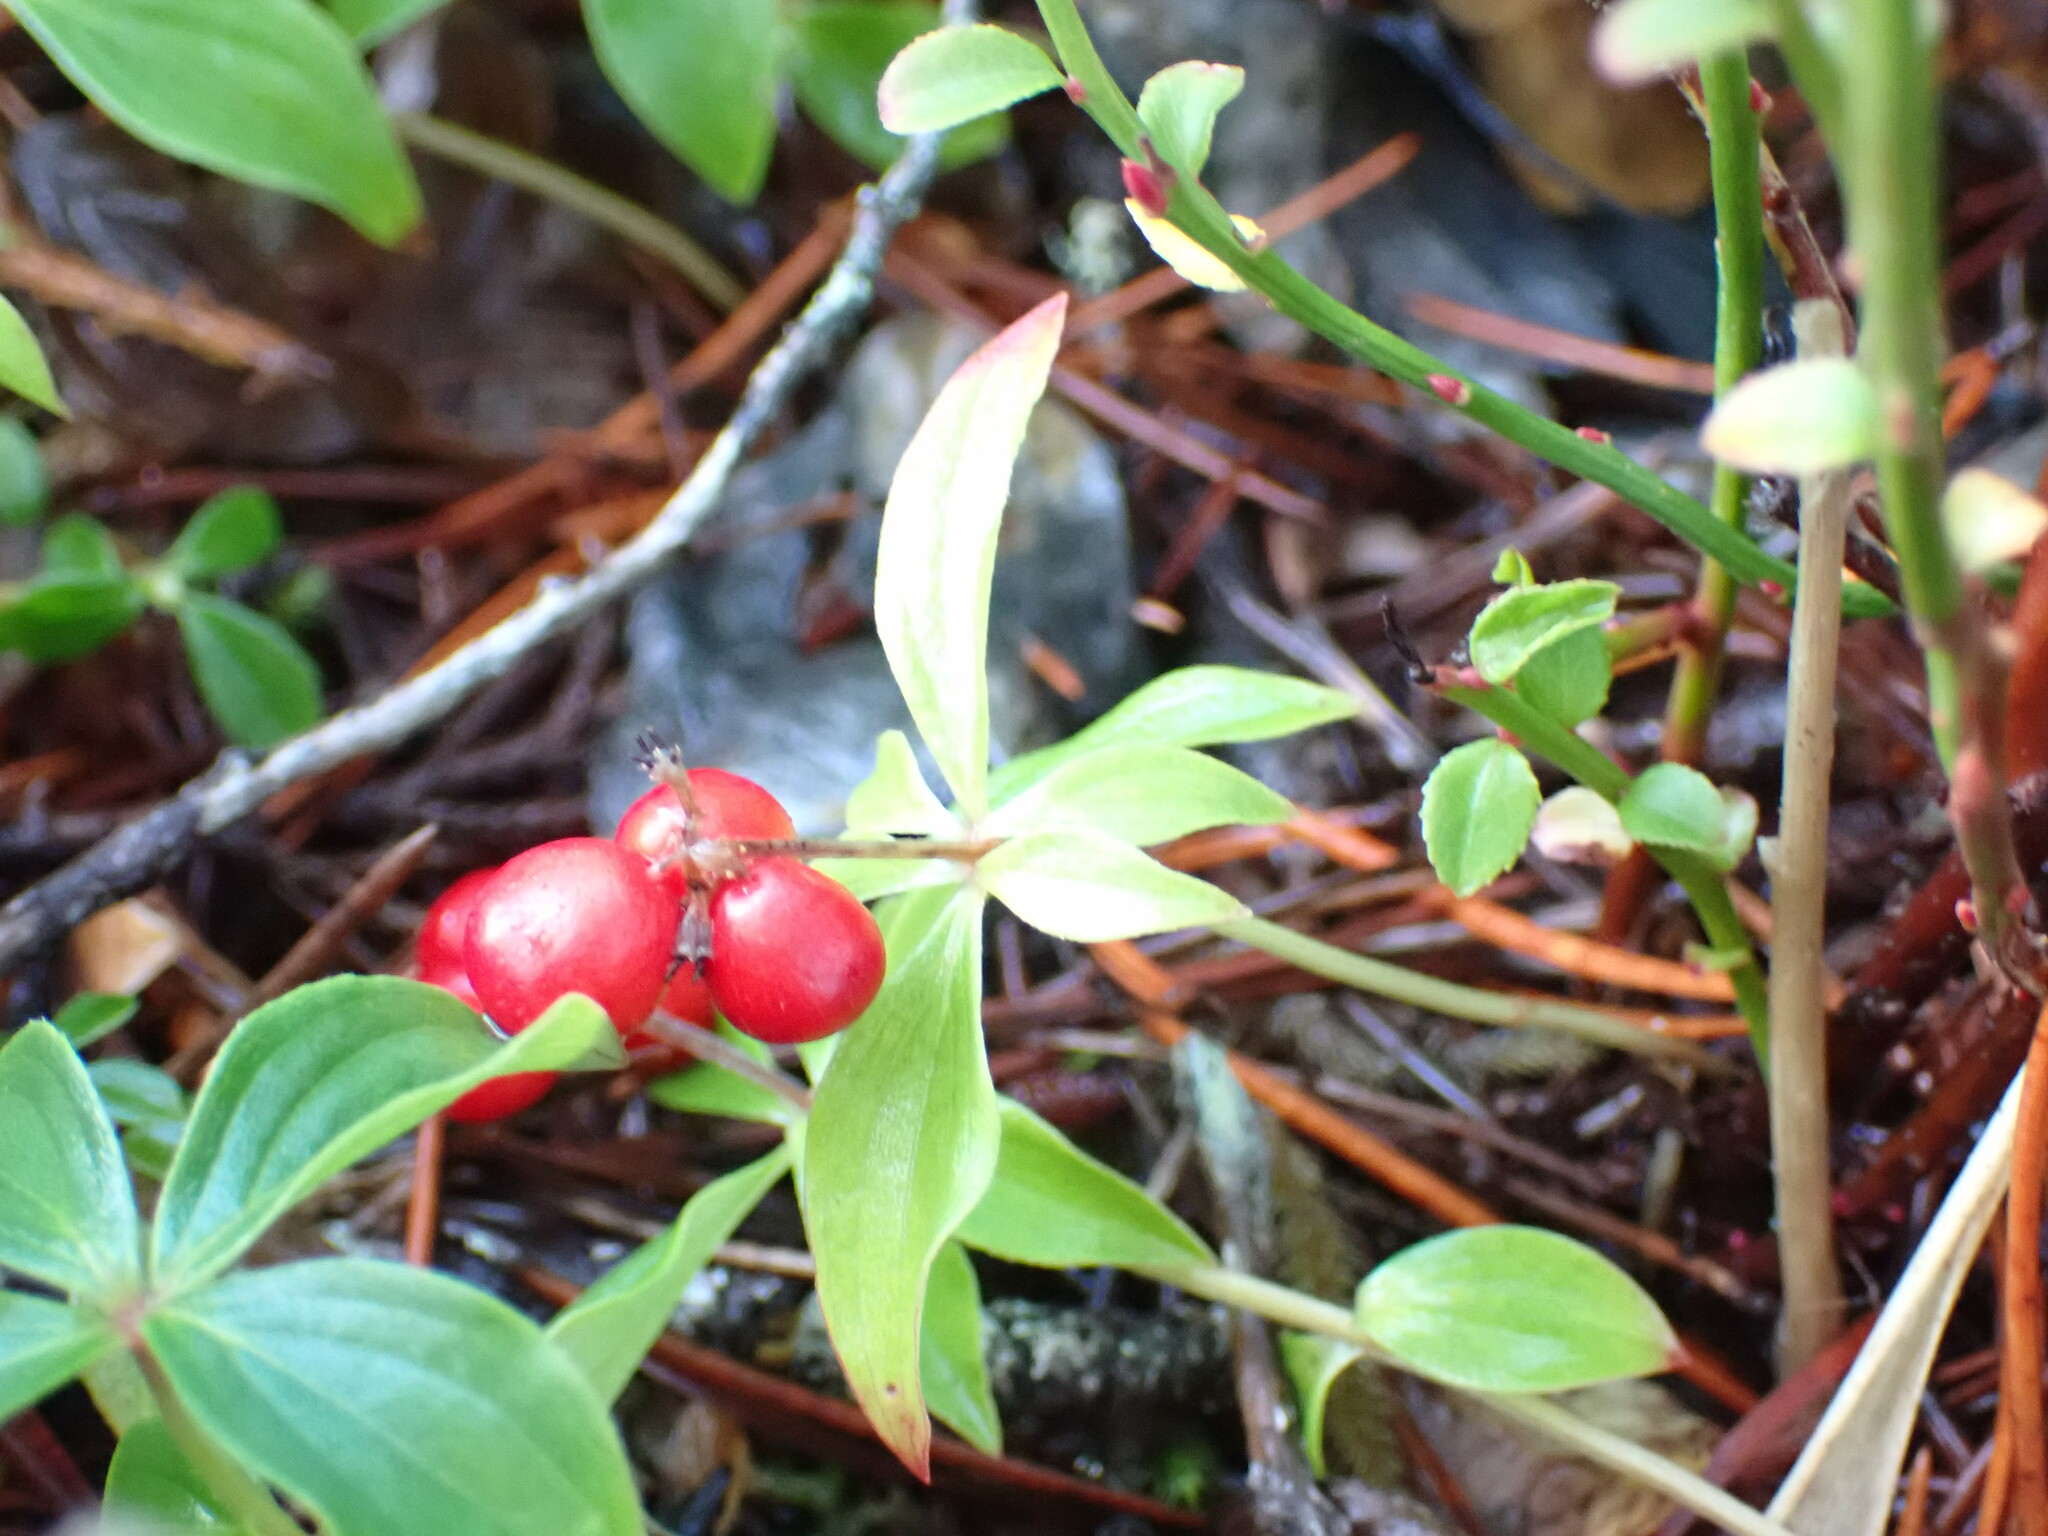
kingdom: Plantae
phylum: Tracheophyta
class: Magnoliopsida
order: Cornales
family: Cornaceae
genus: Cornus
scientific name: Cornus unalaschkensis
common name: Alaska bunchberry
